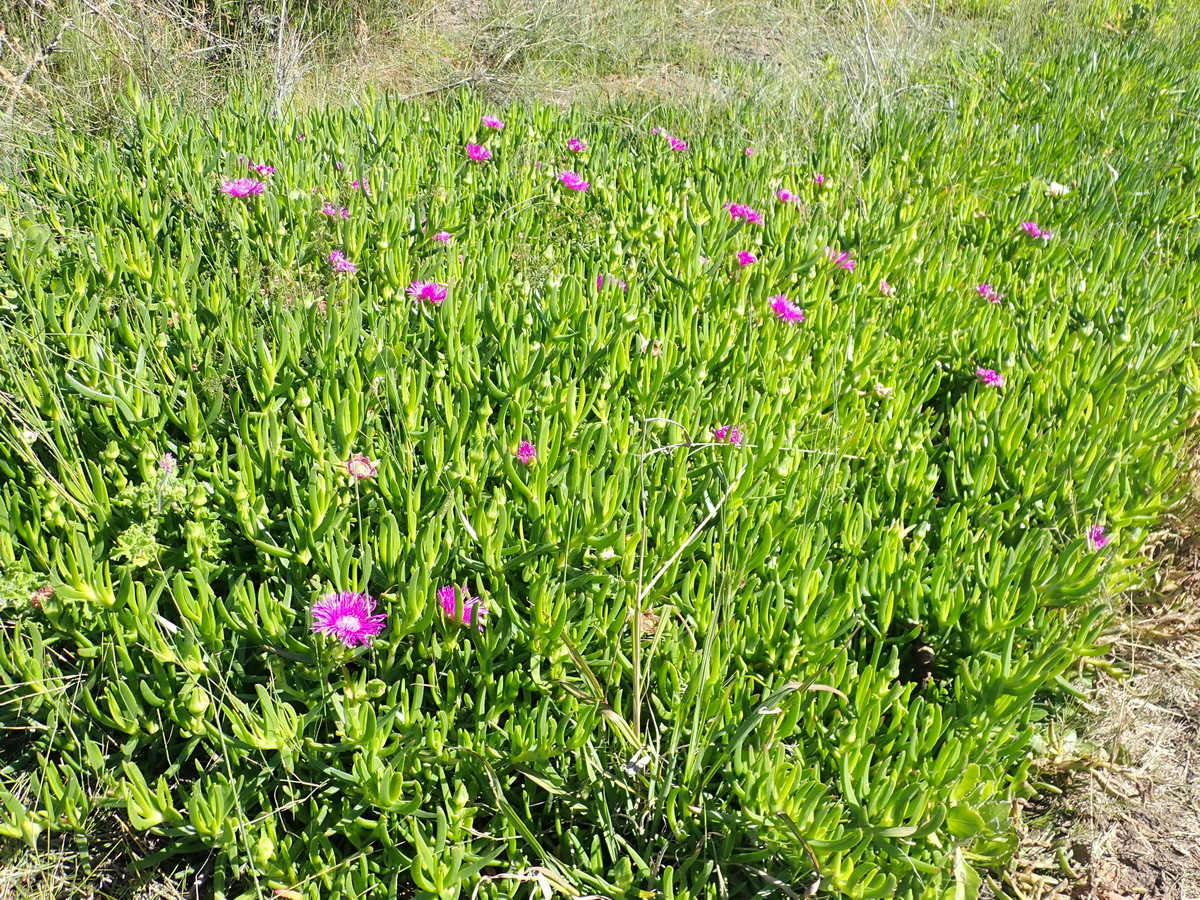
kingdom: Plantae
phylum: Tracheophyta
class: Magnoliopsida
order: Caryophyllales
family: Aizoaceae
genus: Carpobrotus
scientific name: Carpobrotus deliciosus
